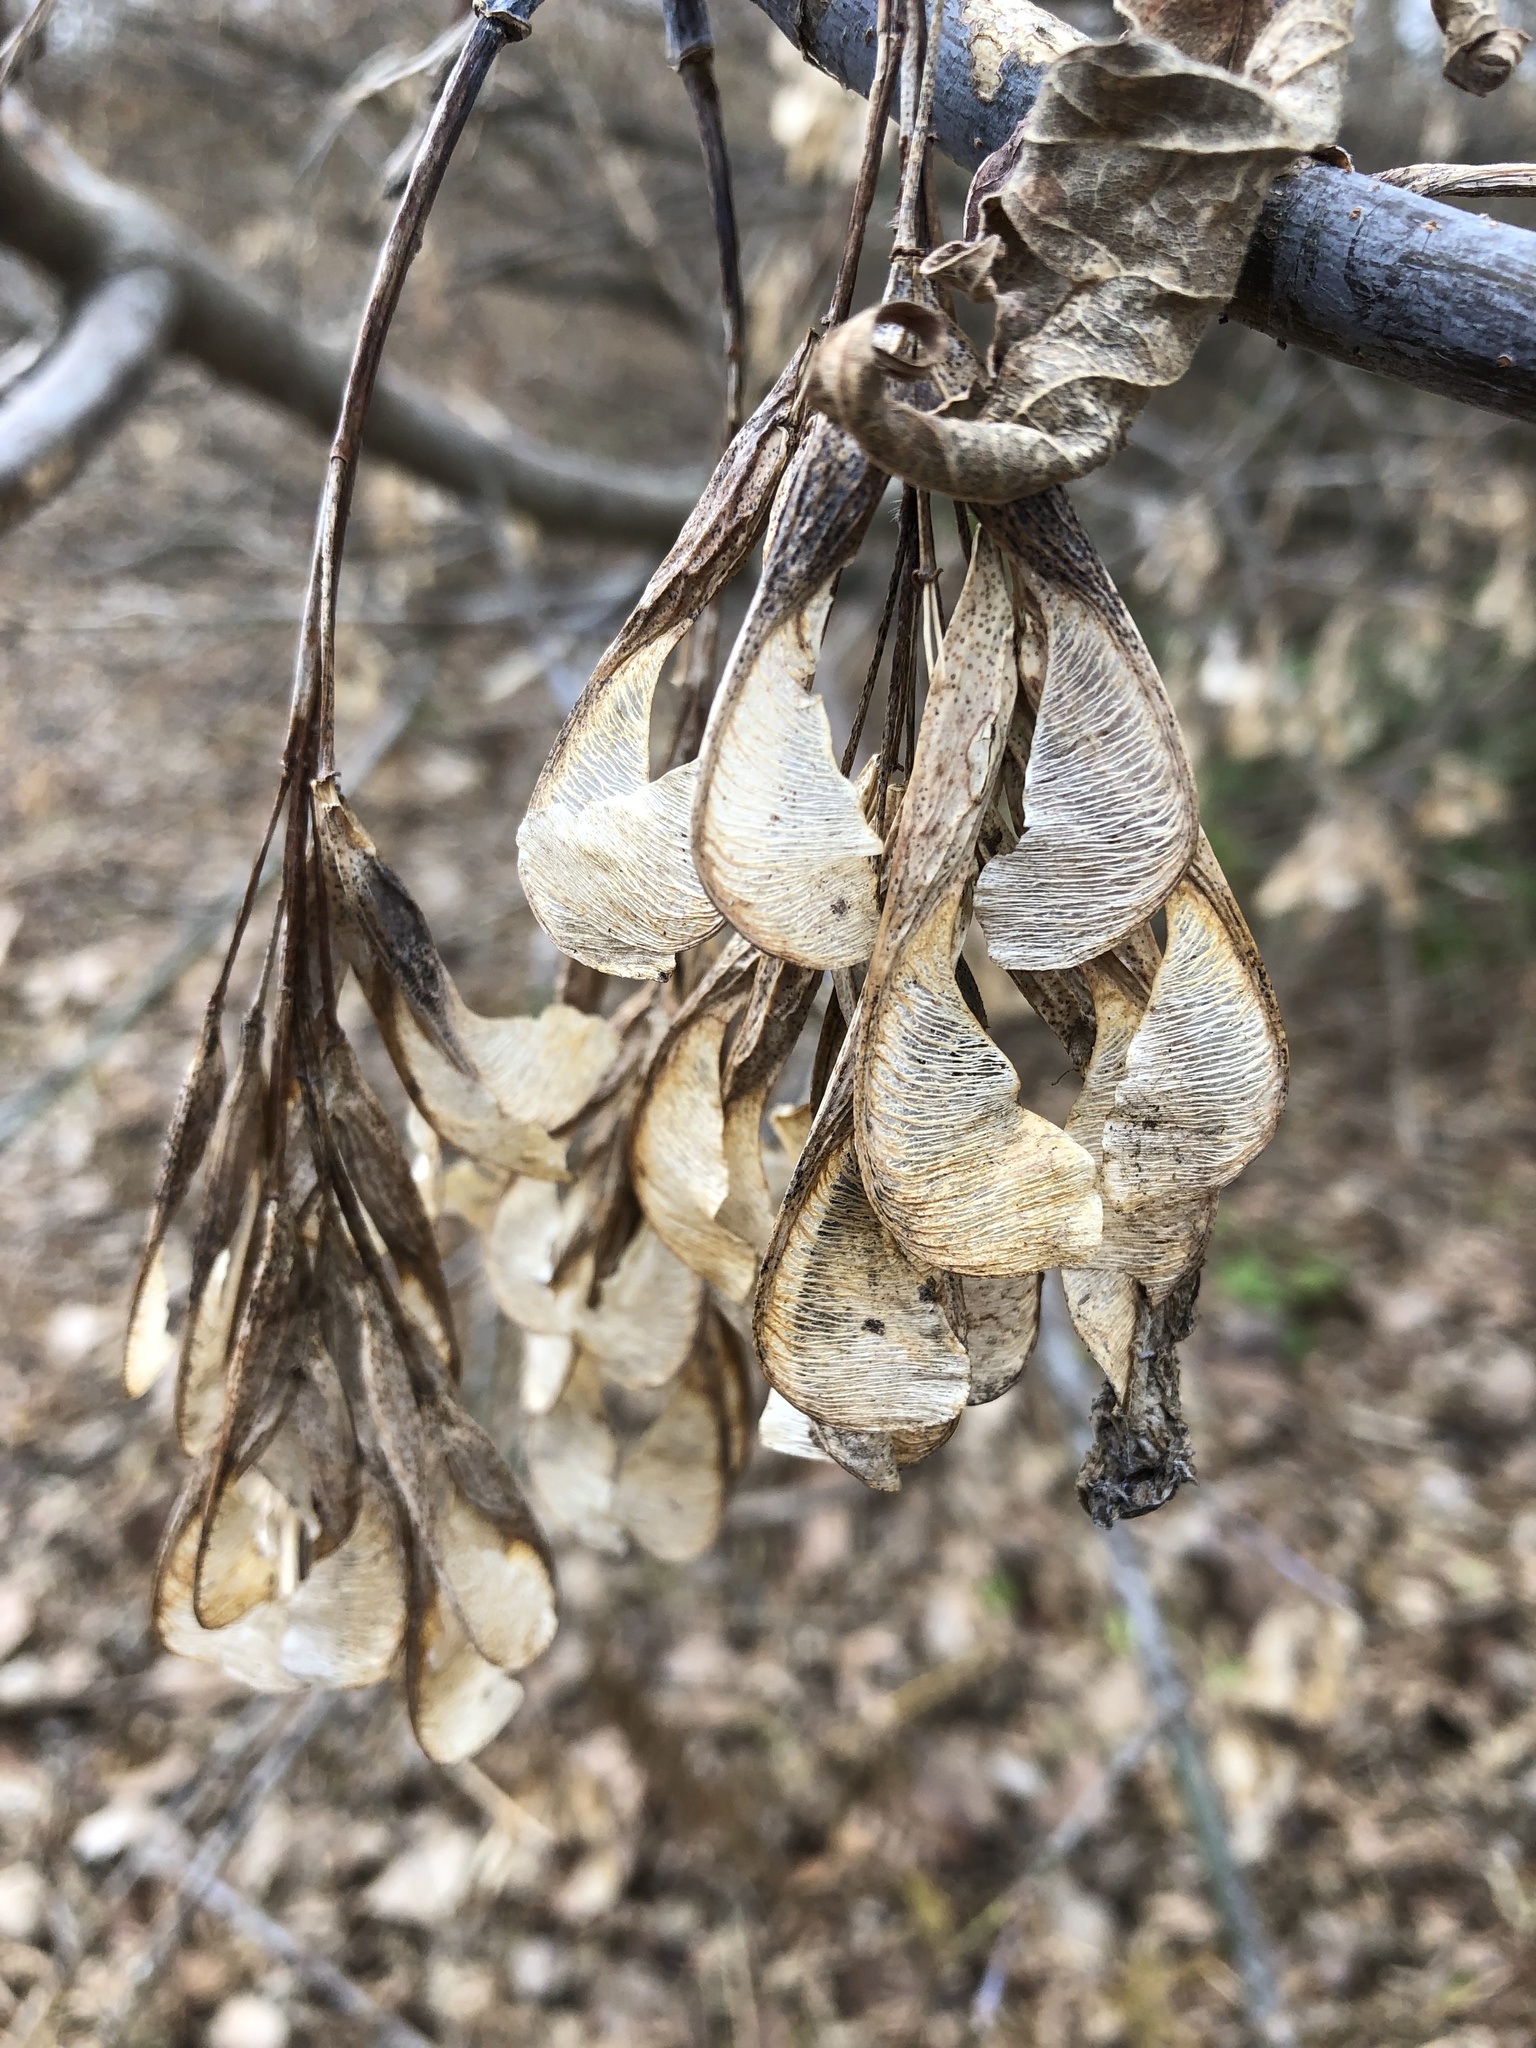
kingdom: Plantae
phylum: Tracheophyta
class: Magnoliopsida
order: Sapindales
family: Sapindaceae
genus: Acer
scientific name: Acer negundo
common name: Ashleaf maple
